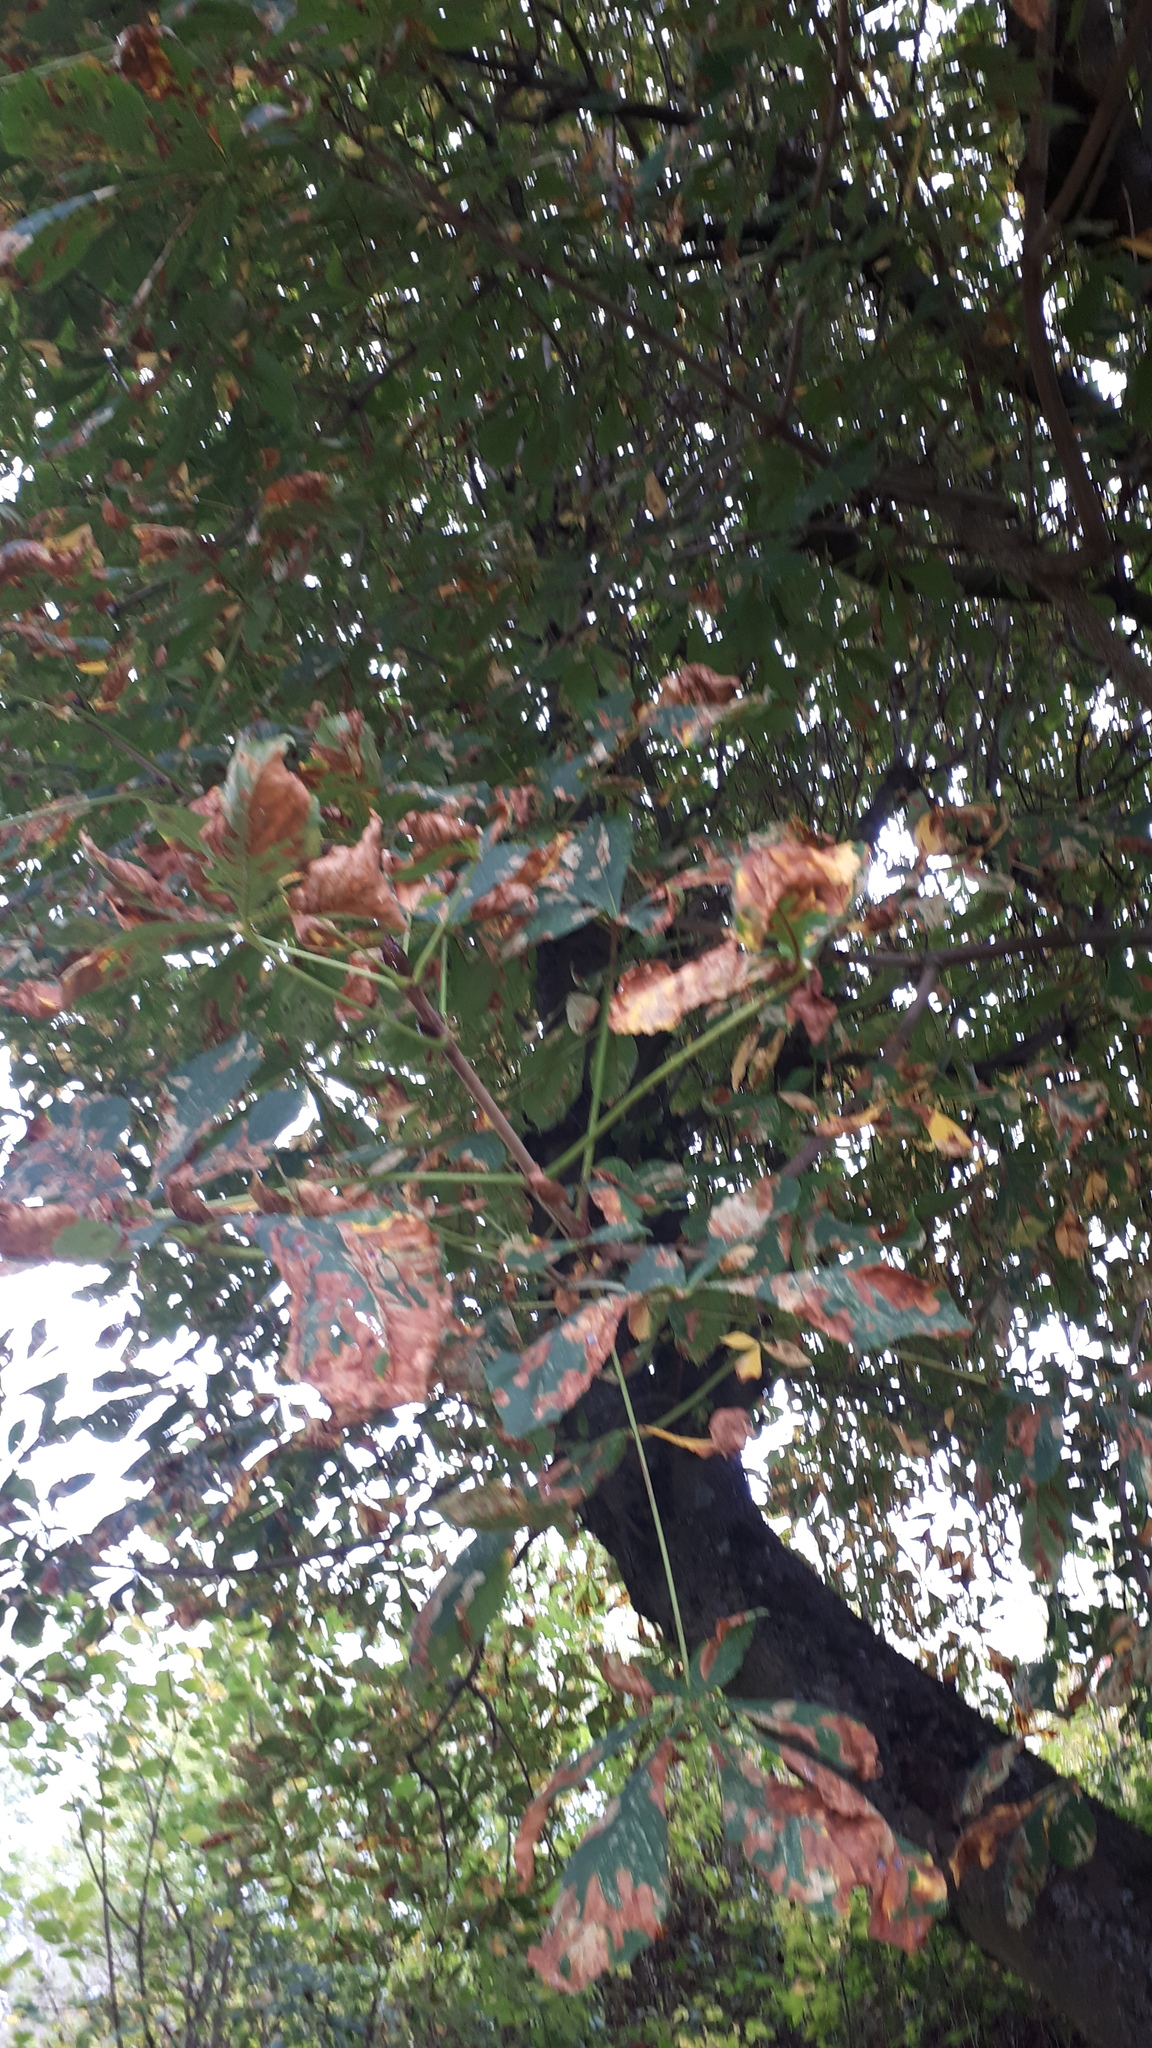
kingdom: Plantae
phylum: Tracheophyta
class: Magnoliopsida
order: Sapindales
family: Sapindaceae
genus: Aesculus
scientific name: Aesculus hippocastanum
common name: Horse-chestnut
